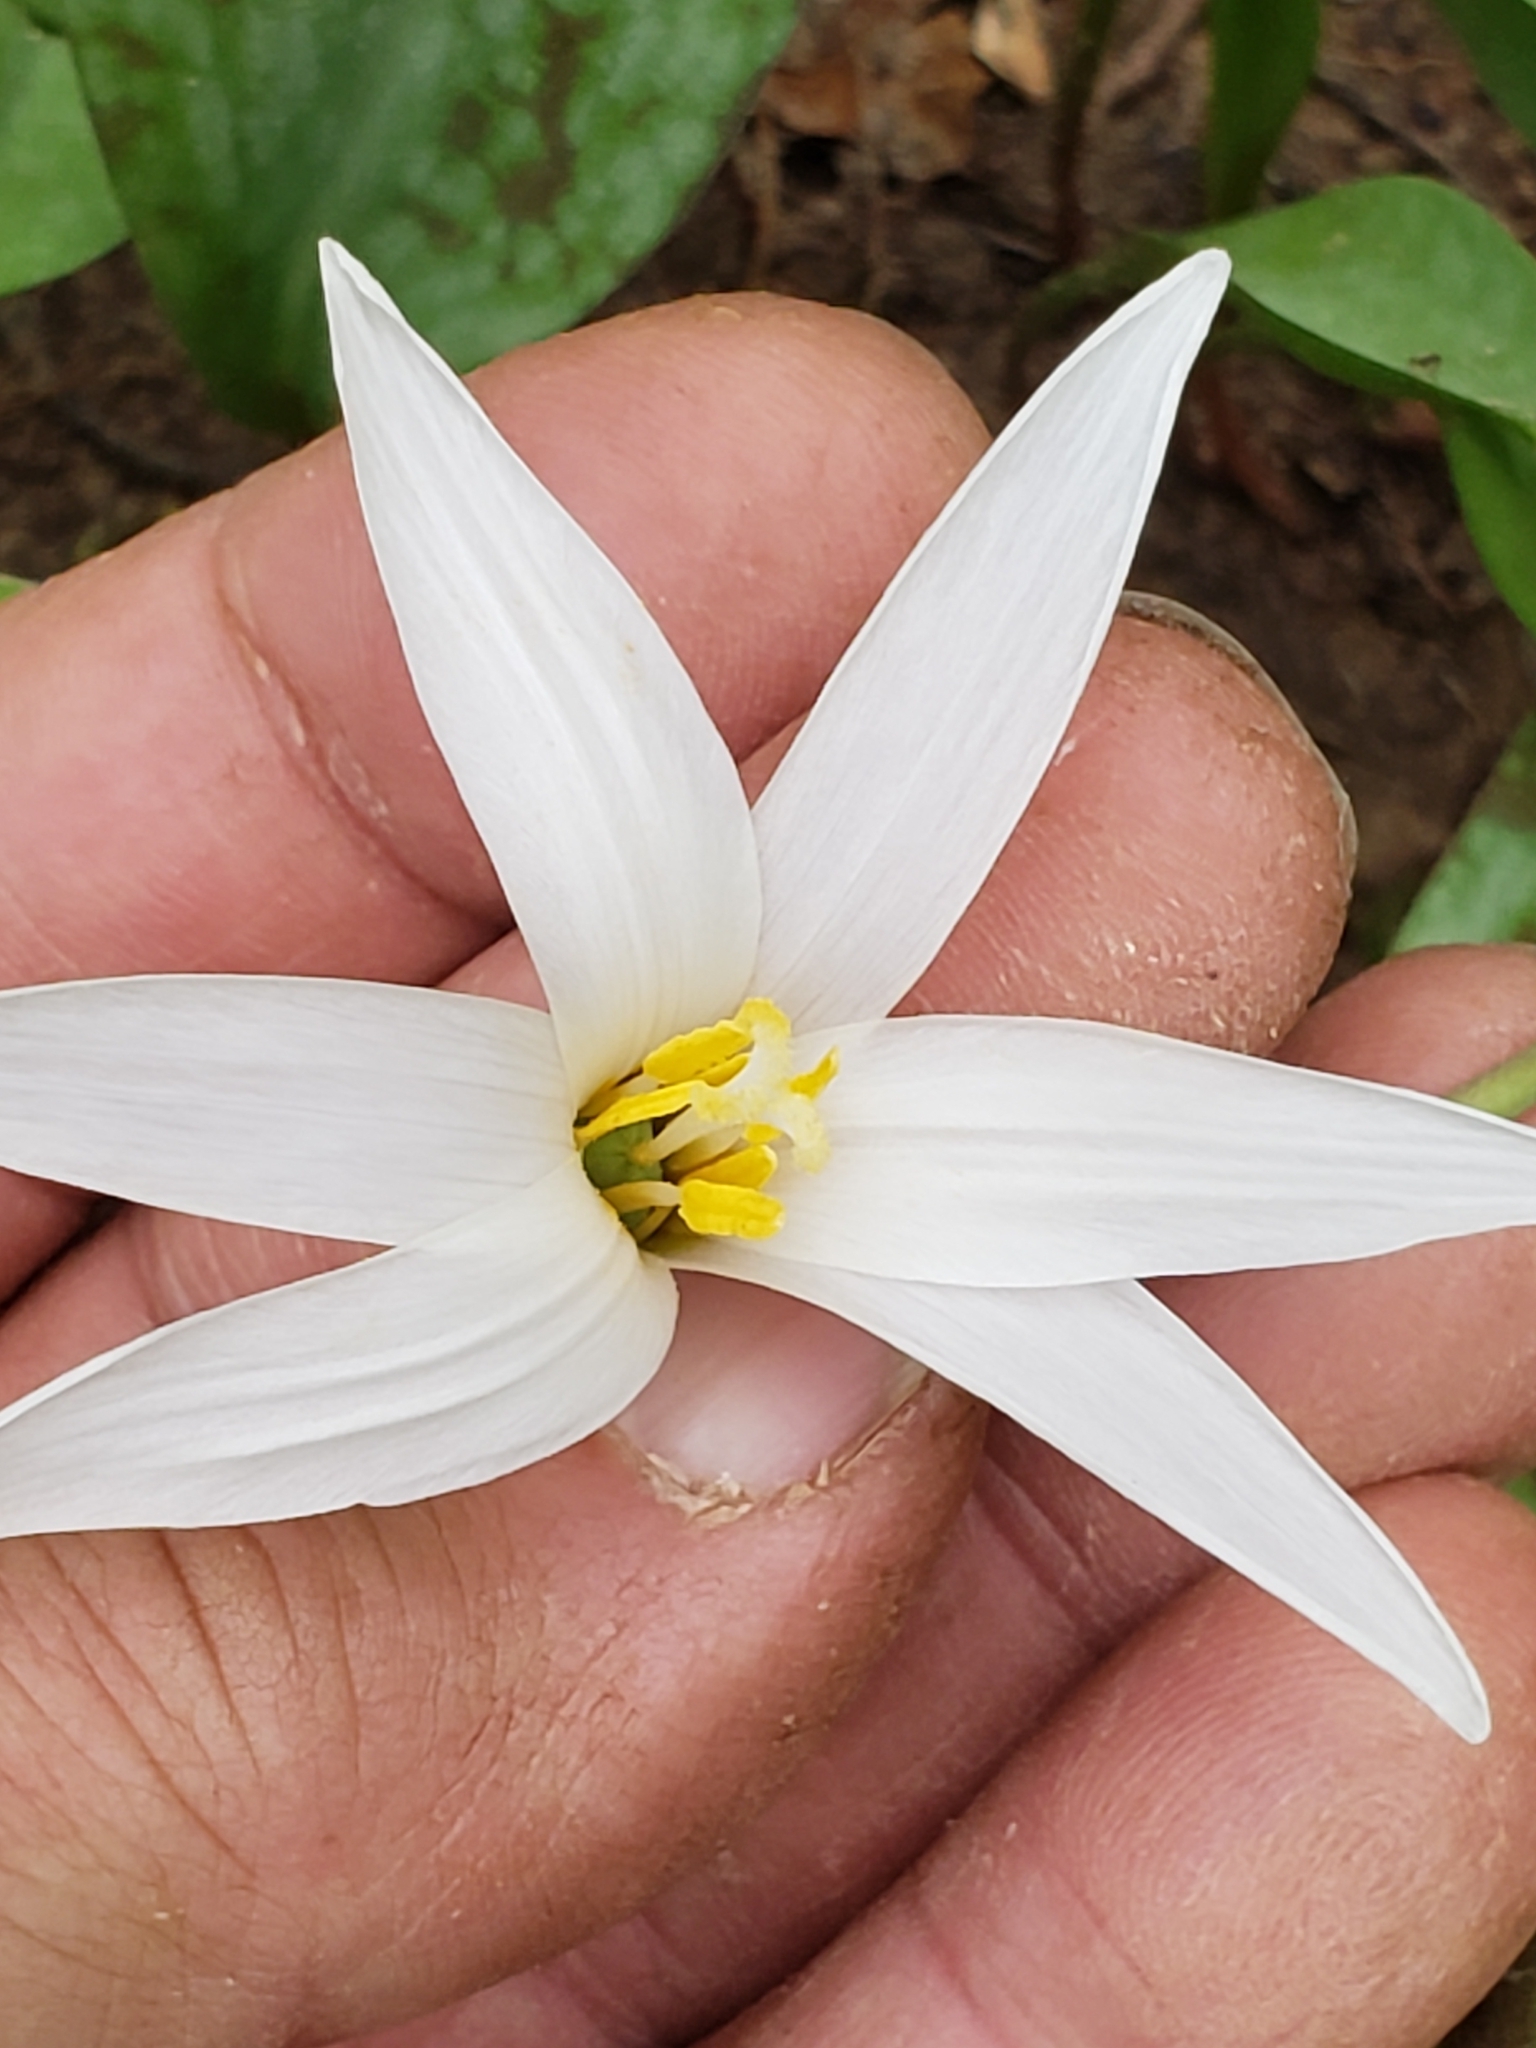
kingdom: Plantae
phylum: Tracheophyta
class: Liliopsida
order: Liliales
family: Liliaceae
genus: Erythronium
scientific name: Erythronium albidum
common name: White trout-lily
